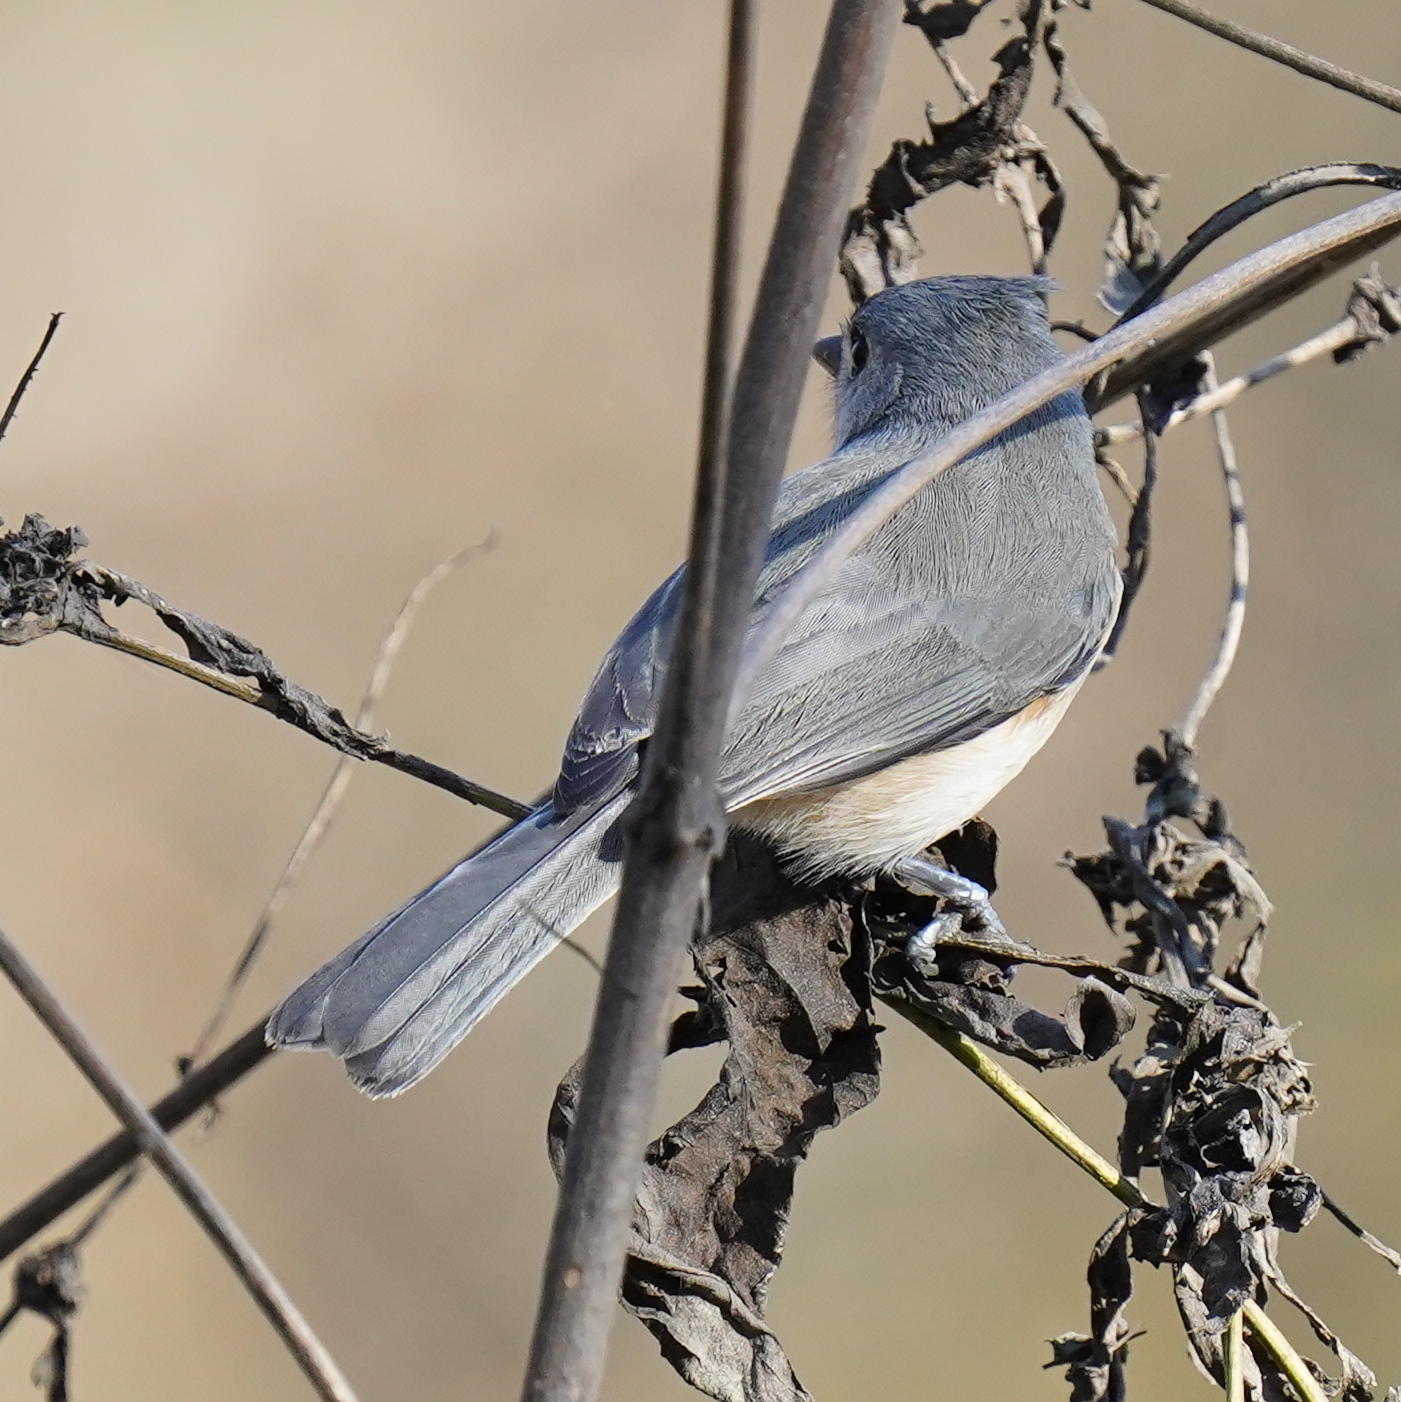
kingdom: Animalia
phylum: Chordata
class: Aves
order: Passeriformes
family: Paridae
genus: Baeolophus
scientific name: Baeolophus bicolor
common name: Tufted titmouse
